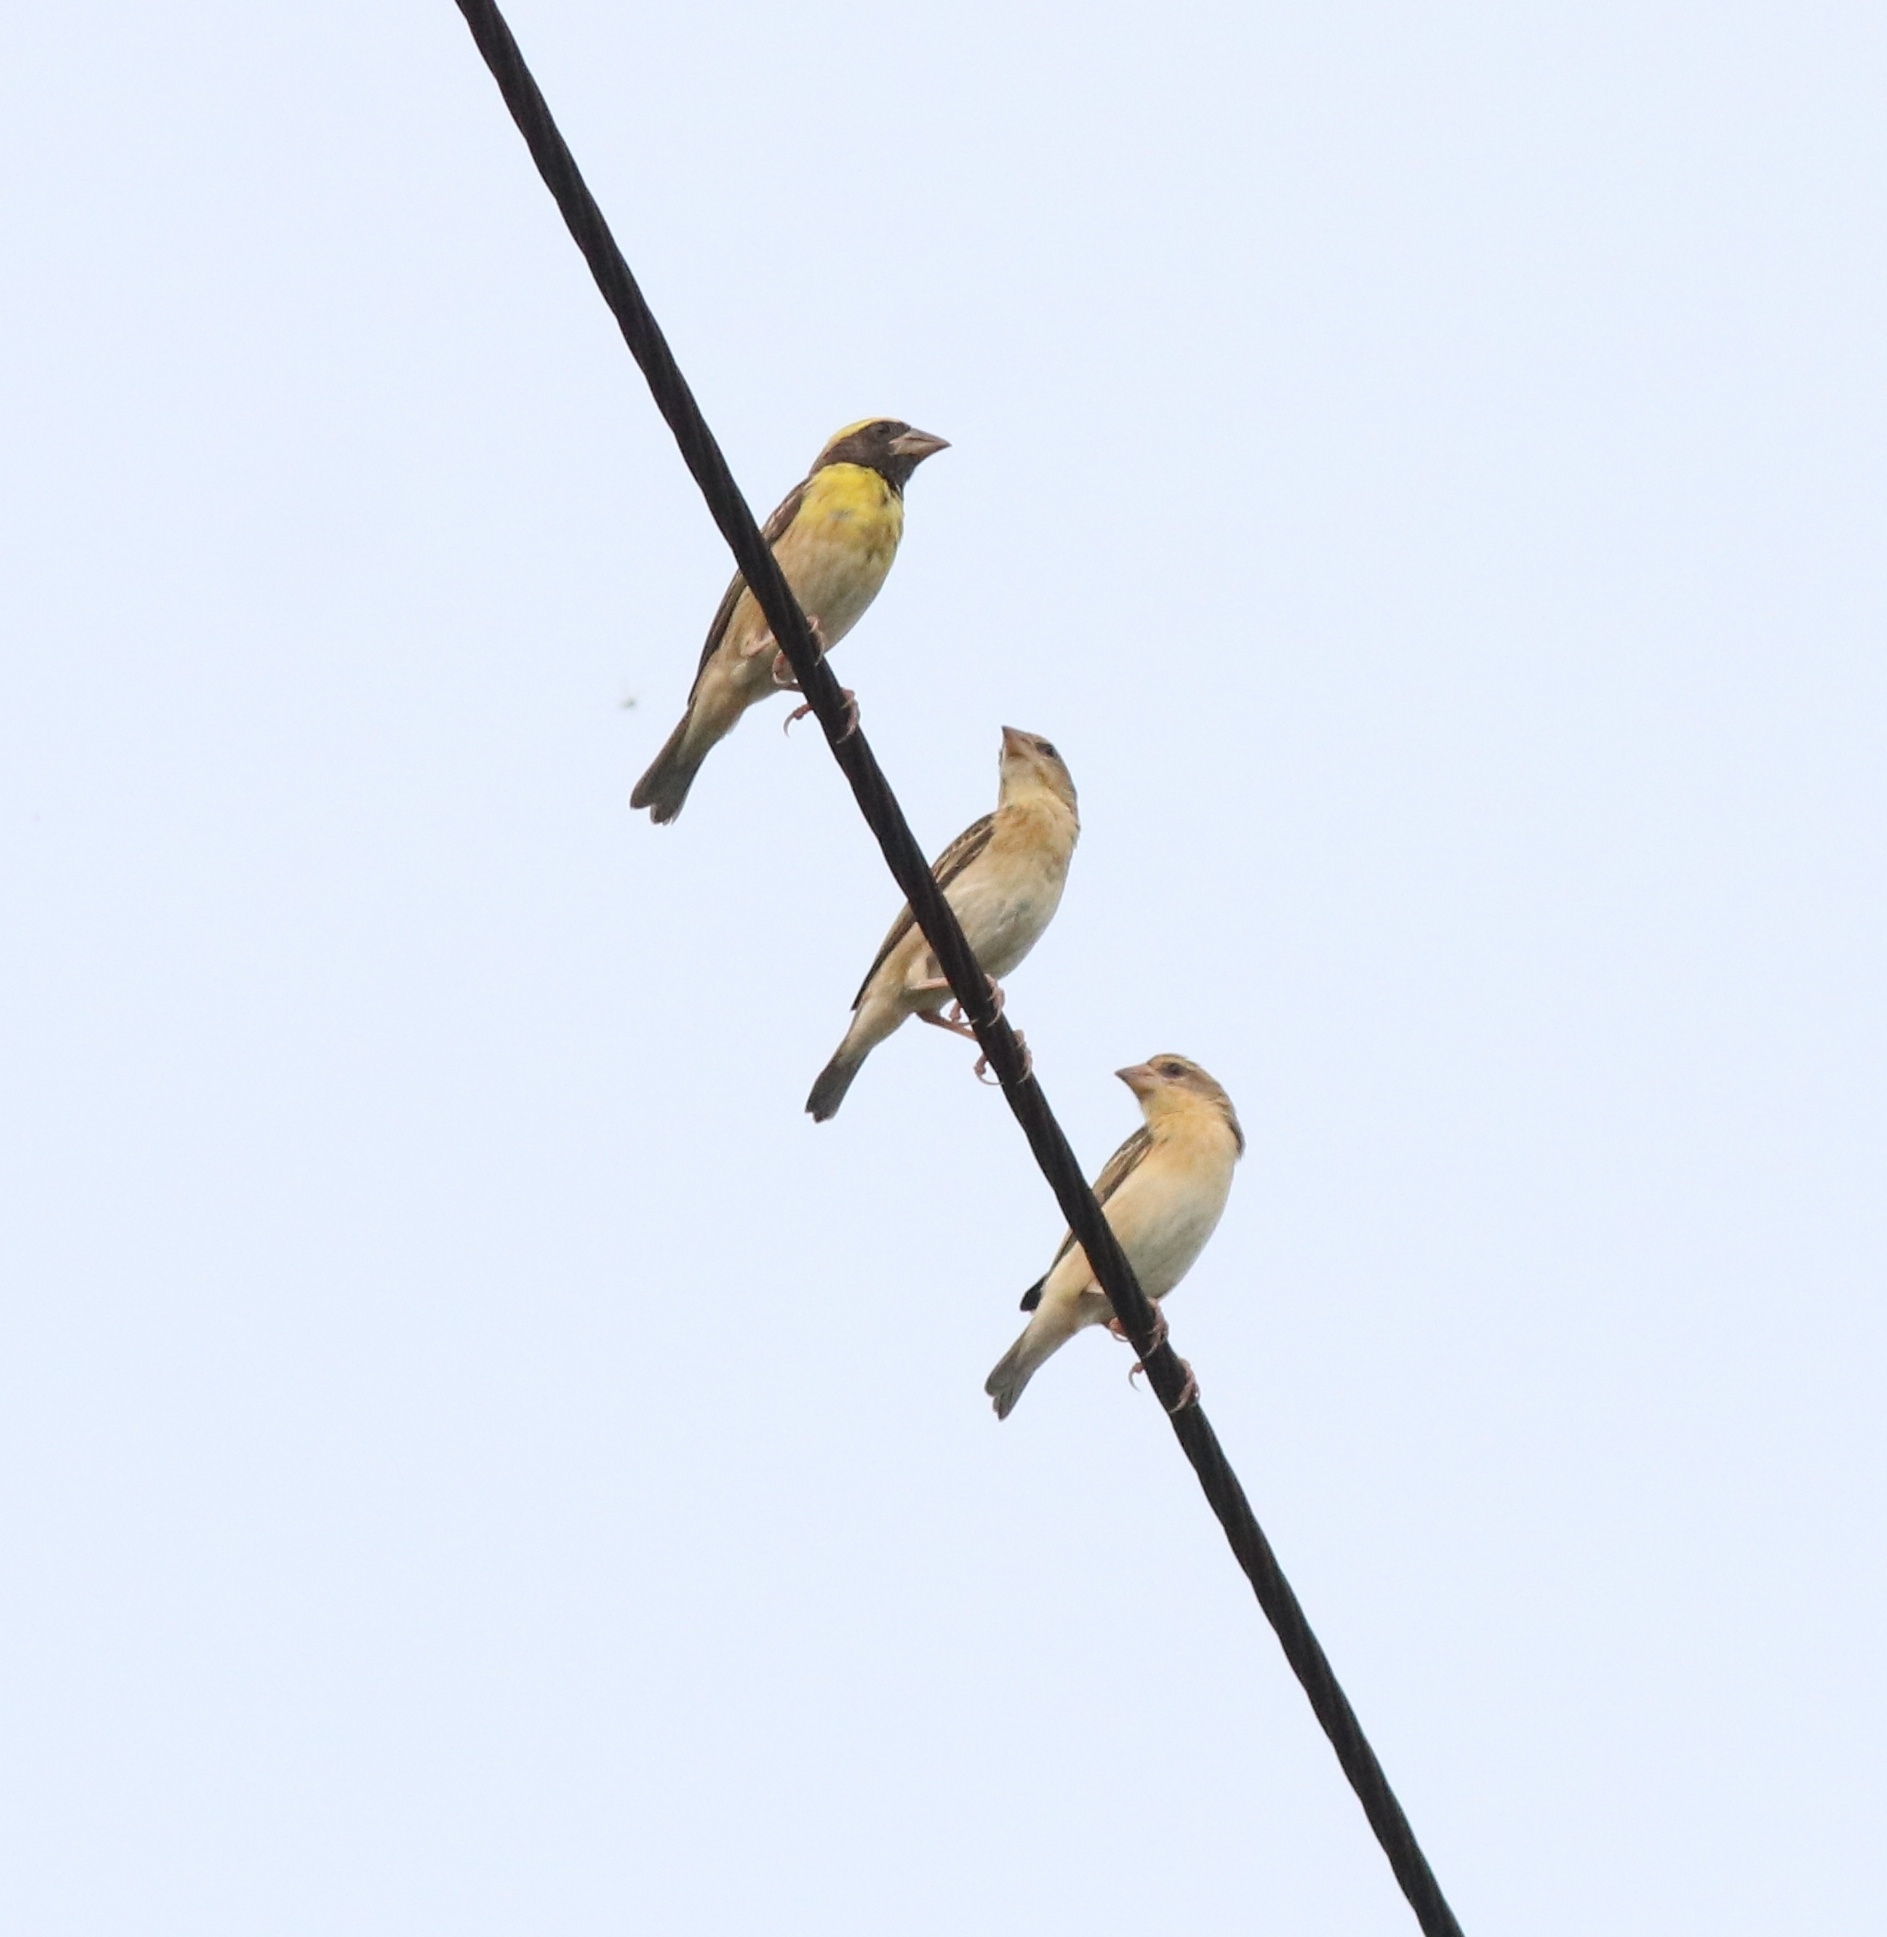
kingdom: Animalia
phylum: Chordata
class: Aves
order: Passeriformes
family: Ploceidae
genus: Ploceus
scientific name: Ploceus philippinus
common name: Baya weaver
